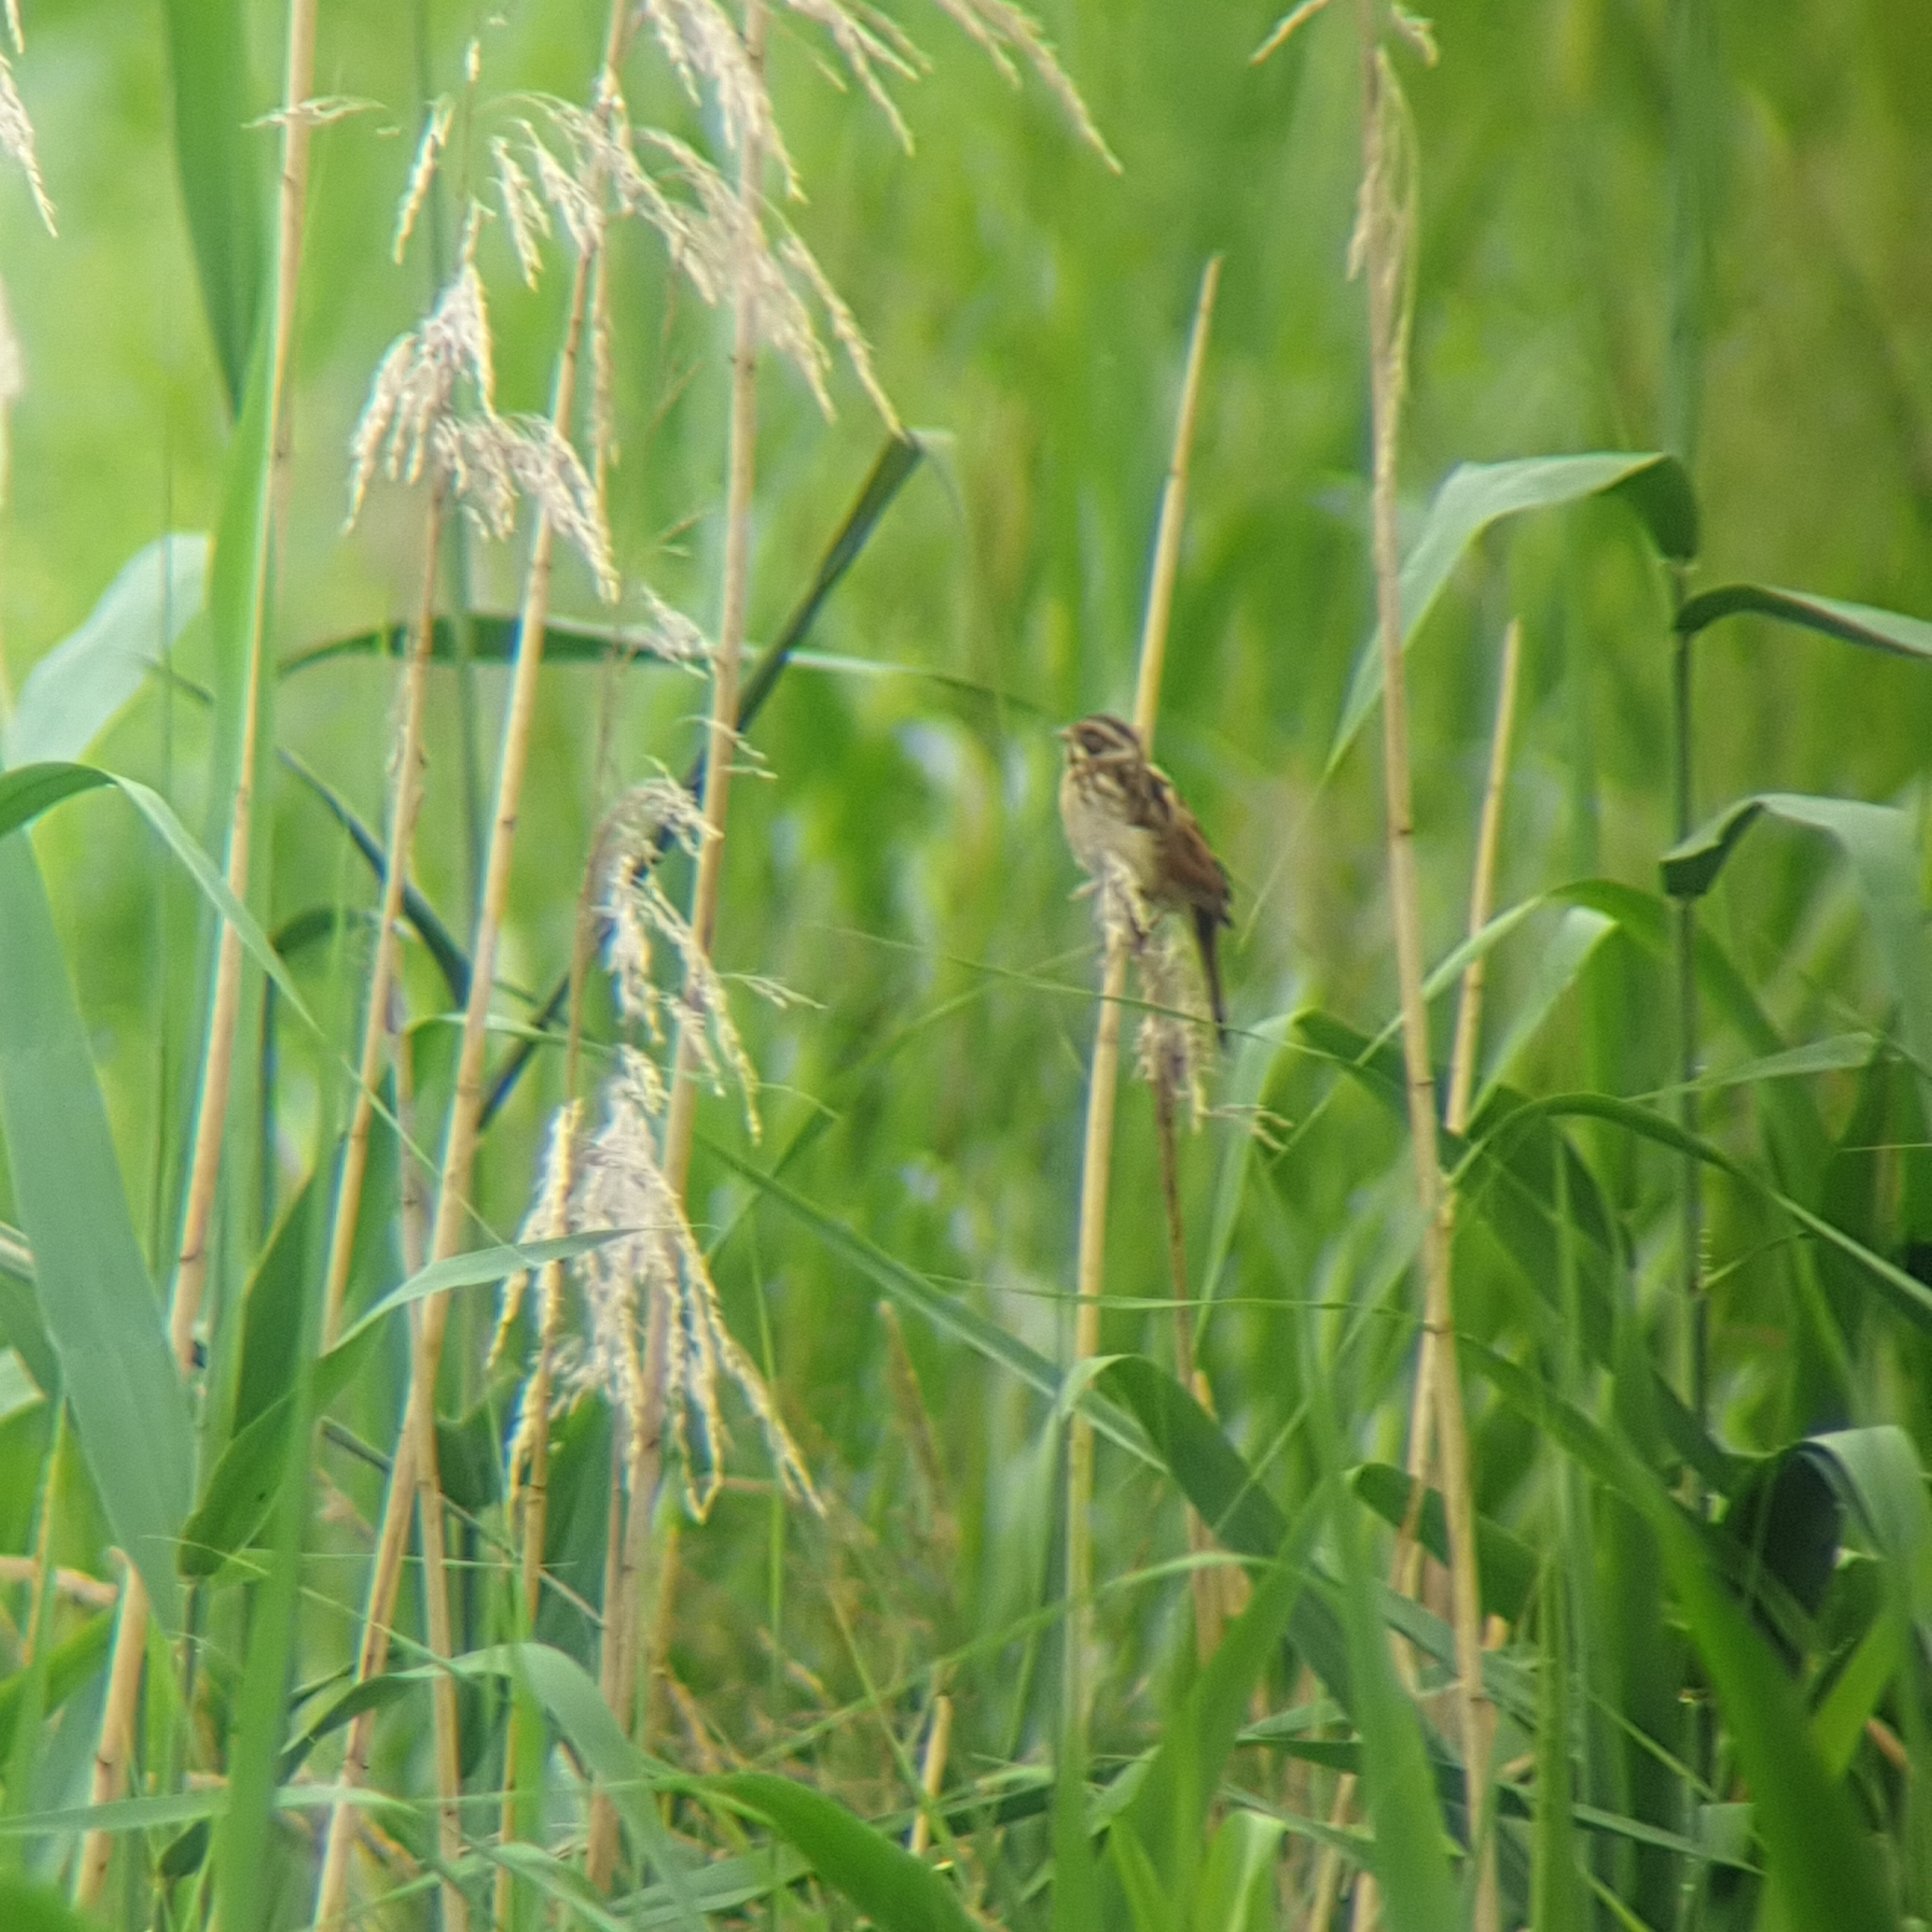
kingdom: Animalia
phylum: Chordata
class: Aves
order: Passeriformes
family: Emberizidae
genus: Emberiza
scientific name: Emberiza schoeniclus
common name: Reed bunting
